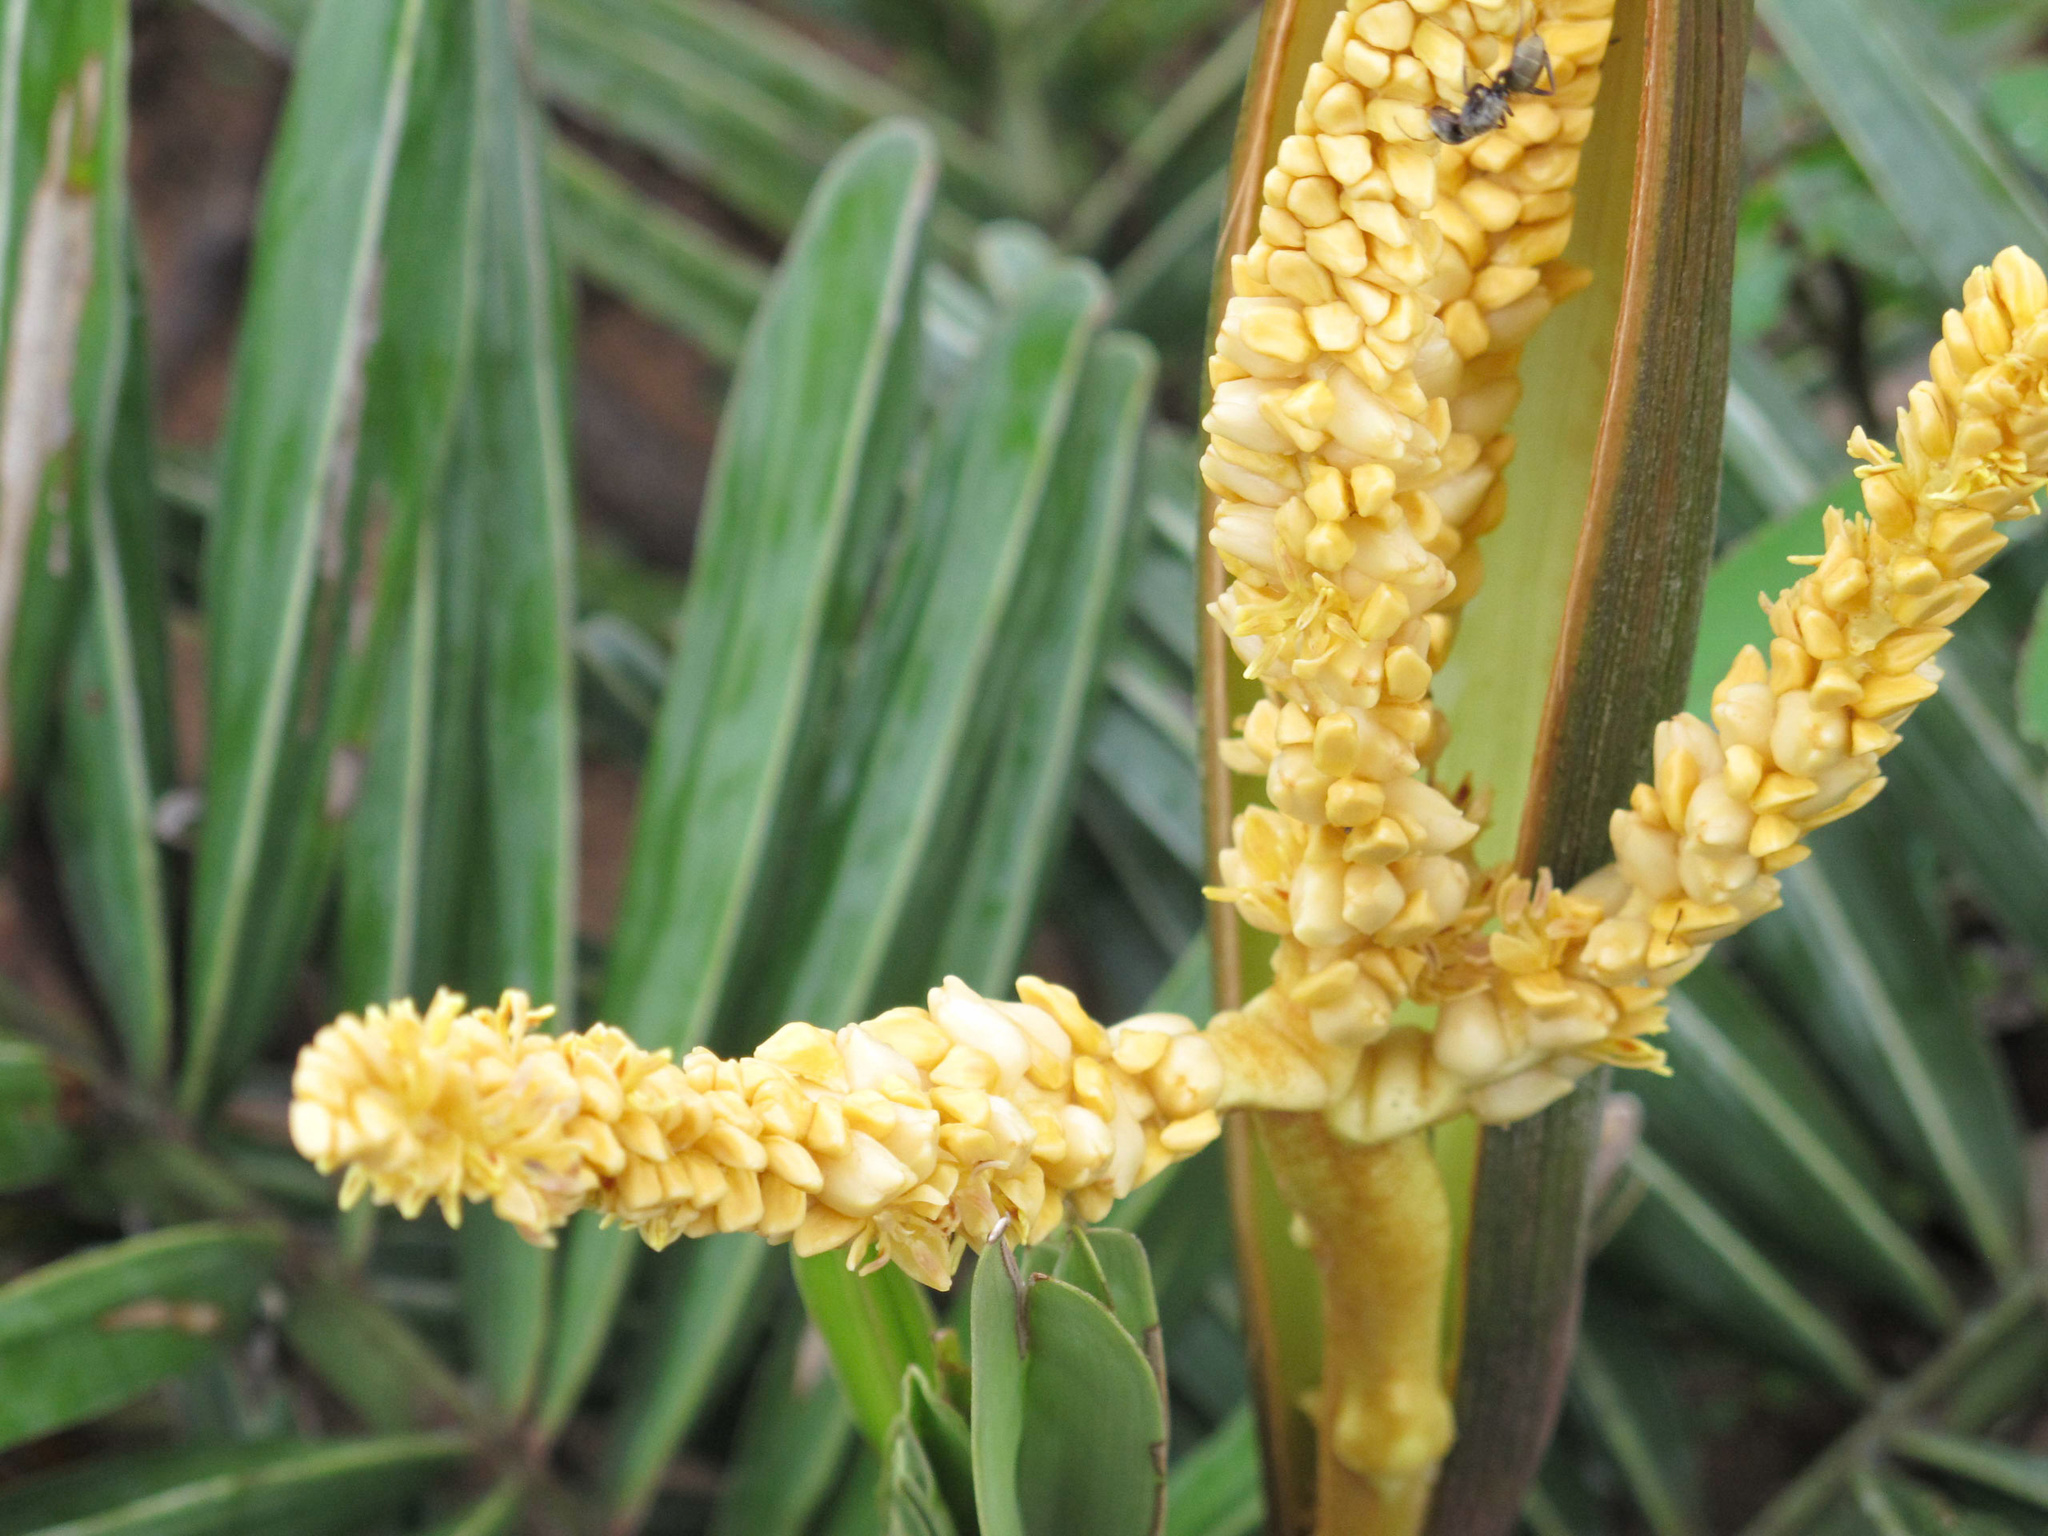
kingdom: Plantae
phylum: Tracheophyta
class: Liliopsida
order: Arecales
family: Arecaceae
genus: Syagrus
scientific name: Syagrus microphylla
